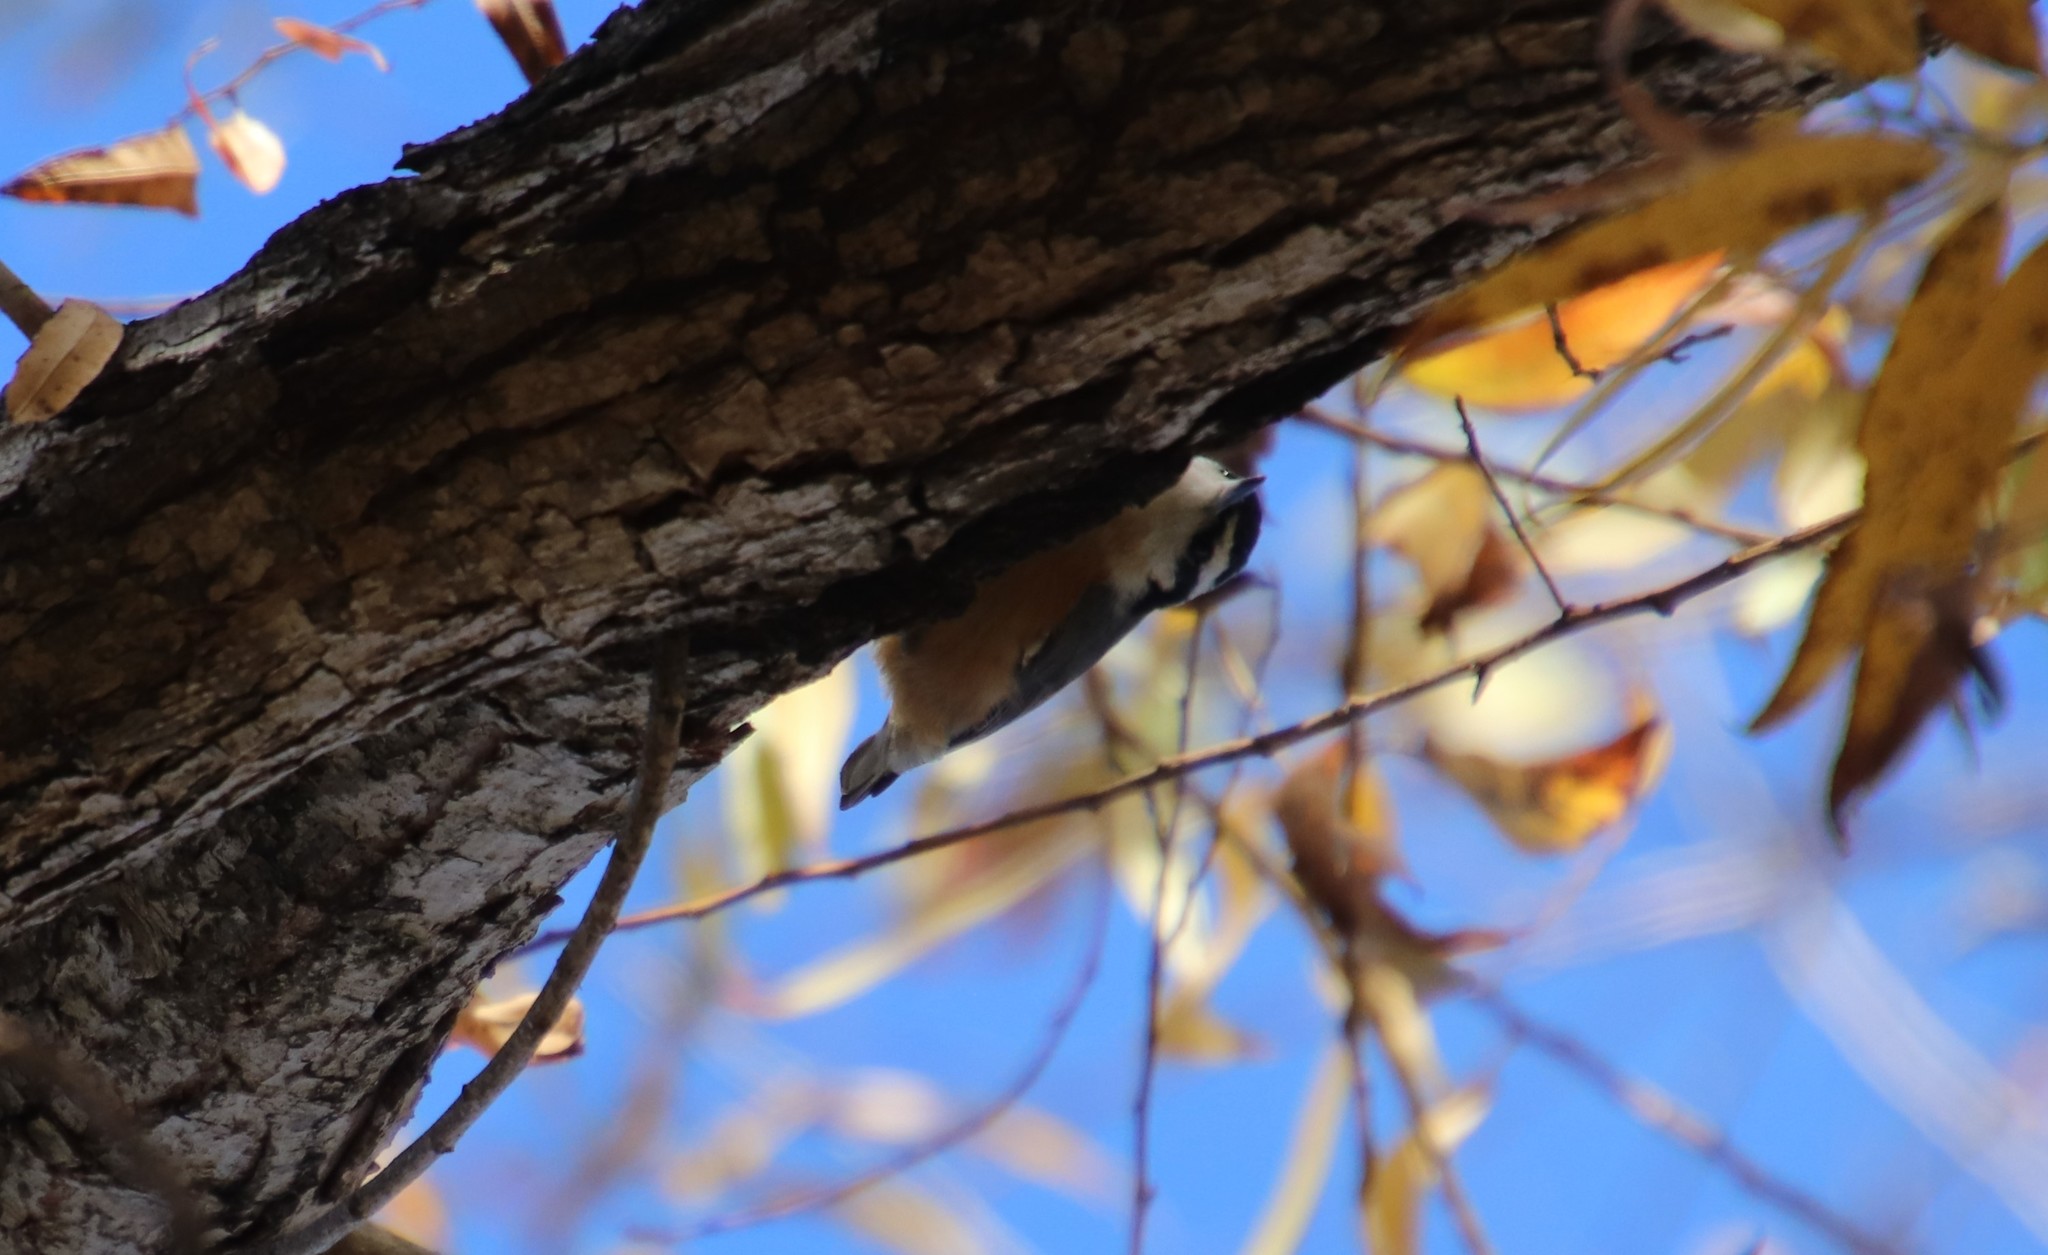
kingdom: Animalia
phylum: Chordata
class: Aves
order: Passeriformes
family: Sittidae
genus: Sitta
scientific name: Sitta canadensis
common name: Red-breasted nuthatch
